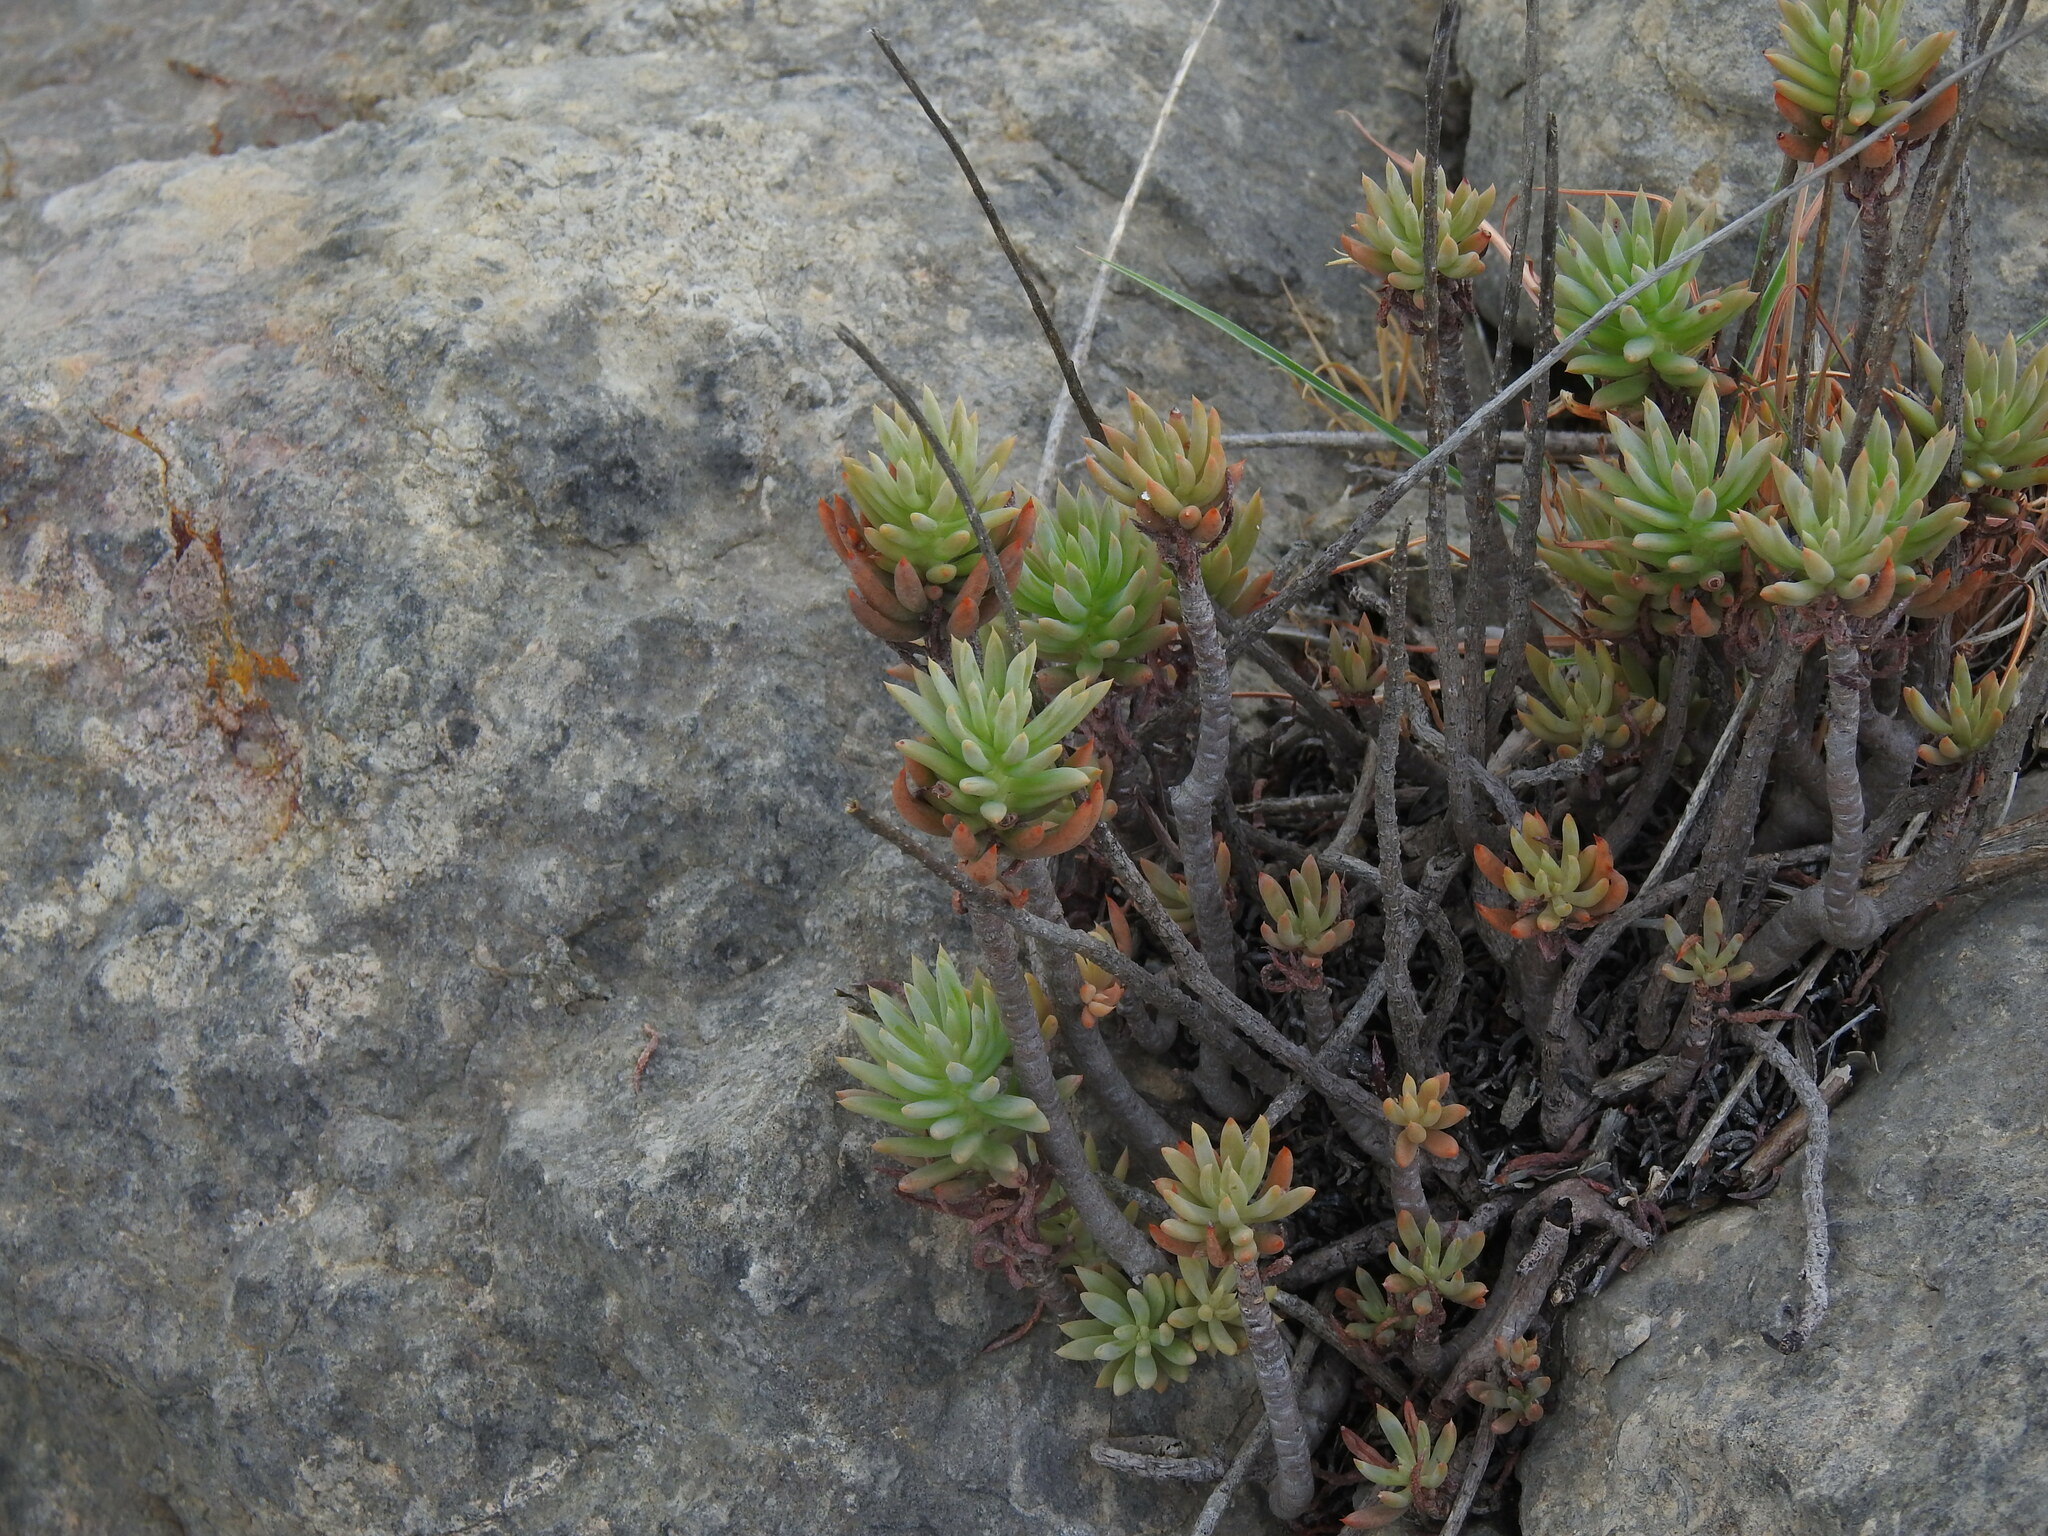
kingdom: Plantae
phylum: Tracheophyta
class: Magnoliopsida
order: Saxifragales
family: Crassulaceae
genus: Petrosedum
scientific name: Petrosedum sediforme
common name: Pale stonecrop
